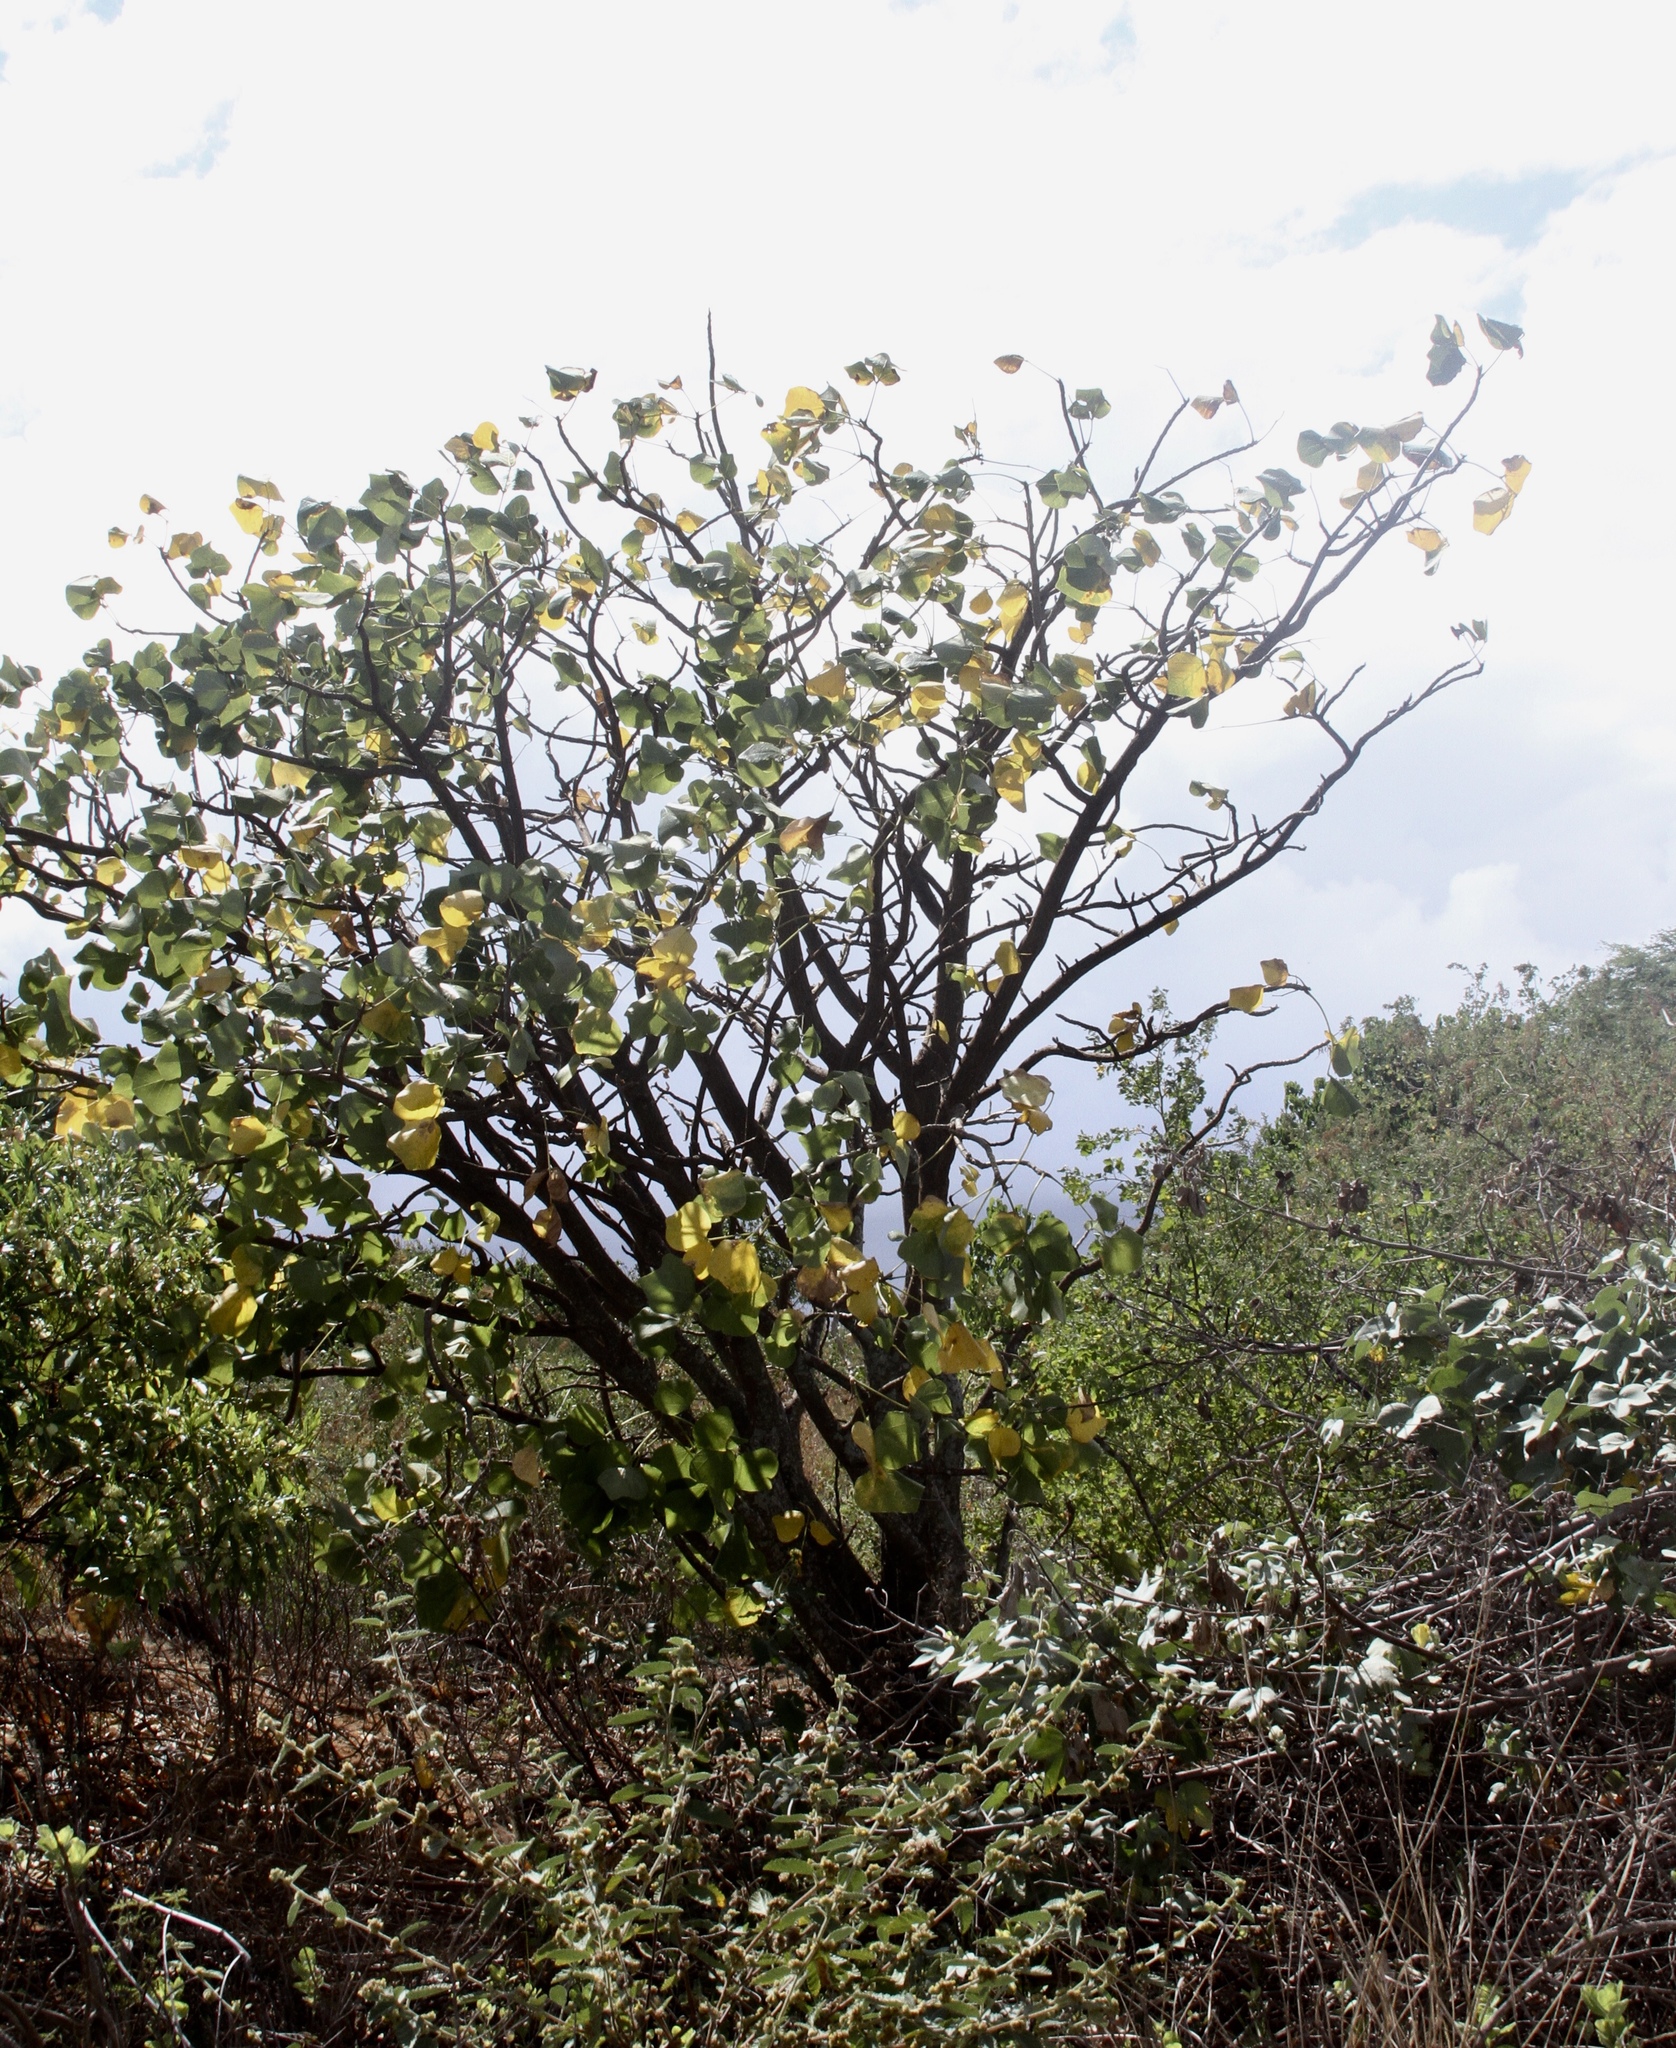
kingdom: Plantae
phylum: Tracheophyta
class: Magnoliopsida
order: Fabales
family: Fabaceae
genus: Erythrina
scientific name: Erythrina sandwicensis
